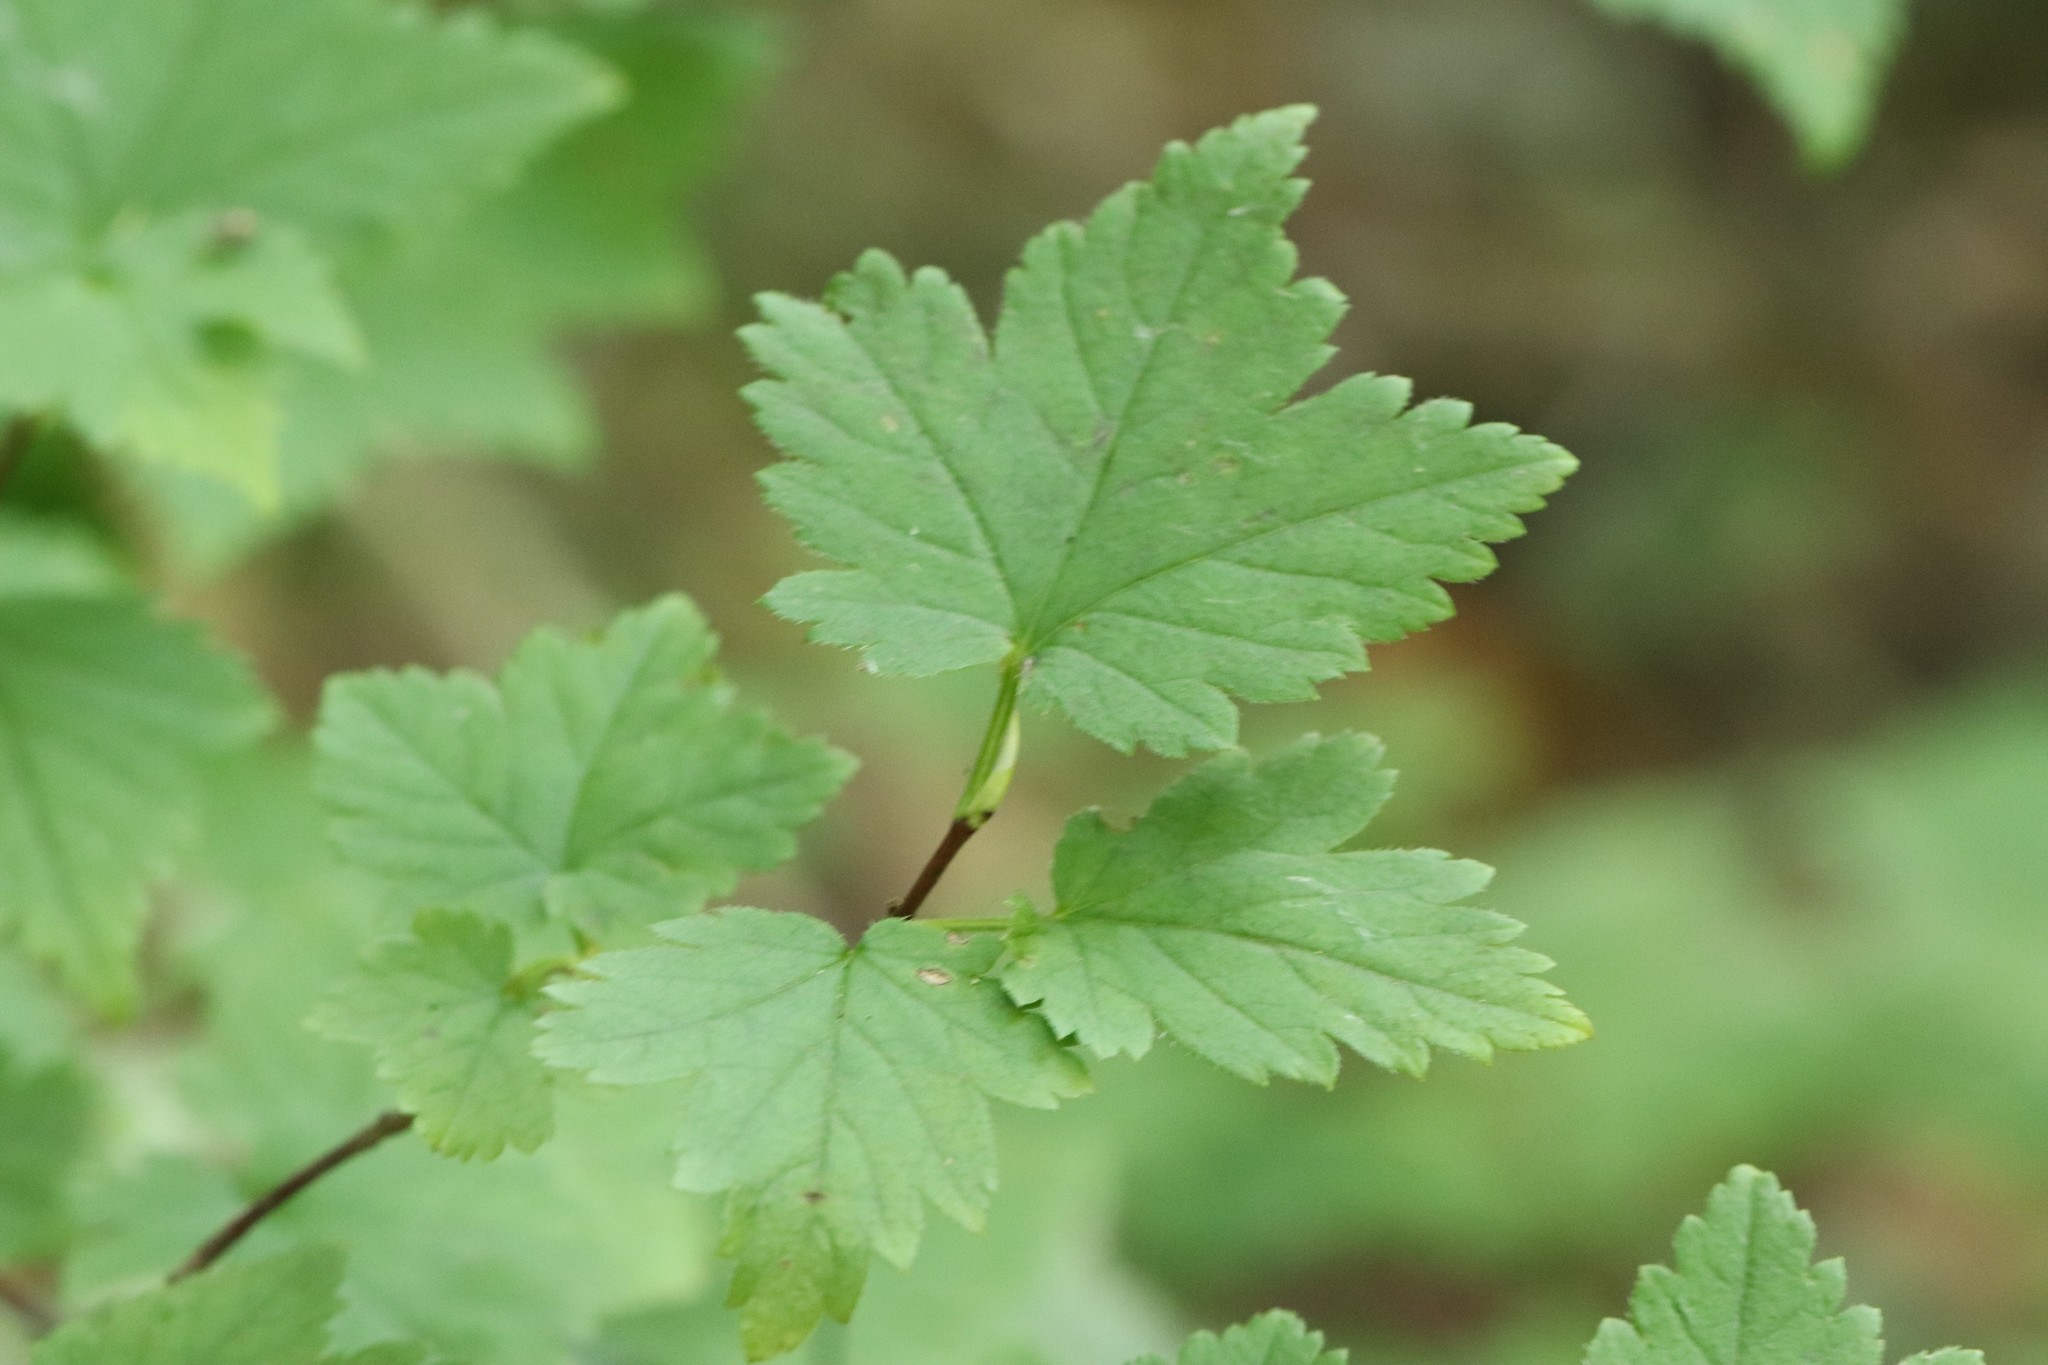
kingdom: Plantae
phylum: Tracheophyta
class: Magnoliopsida
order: Saxifragales
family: Grossulariaceae
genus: Ribes
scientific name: Ribes maximoviczianum
